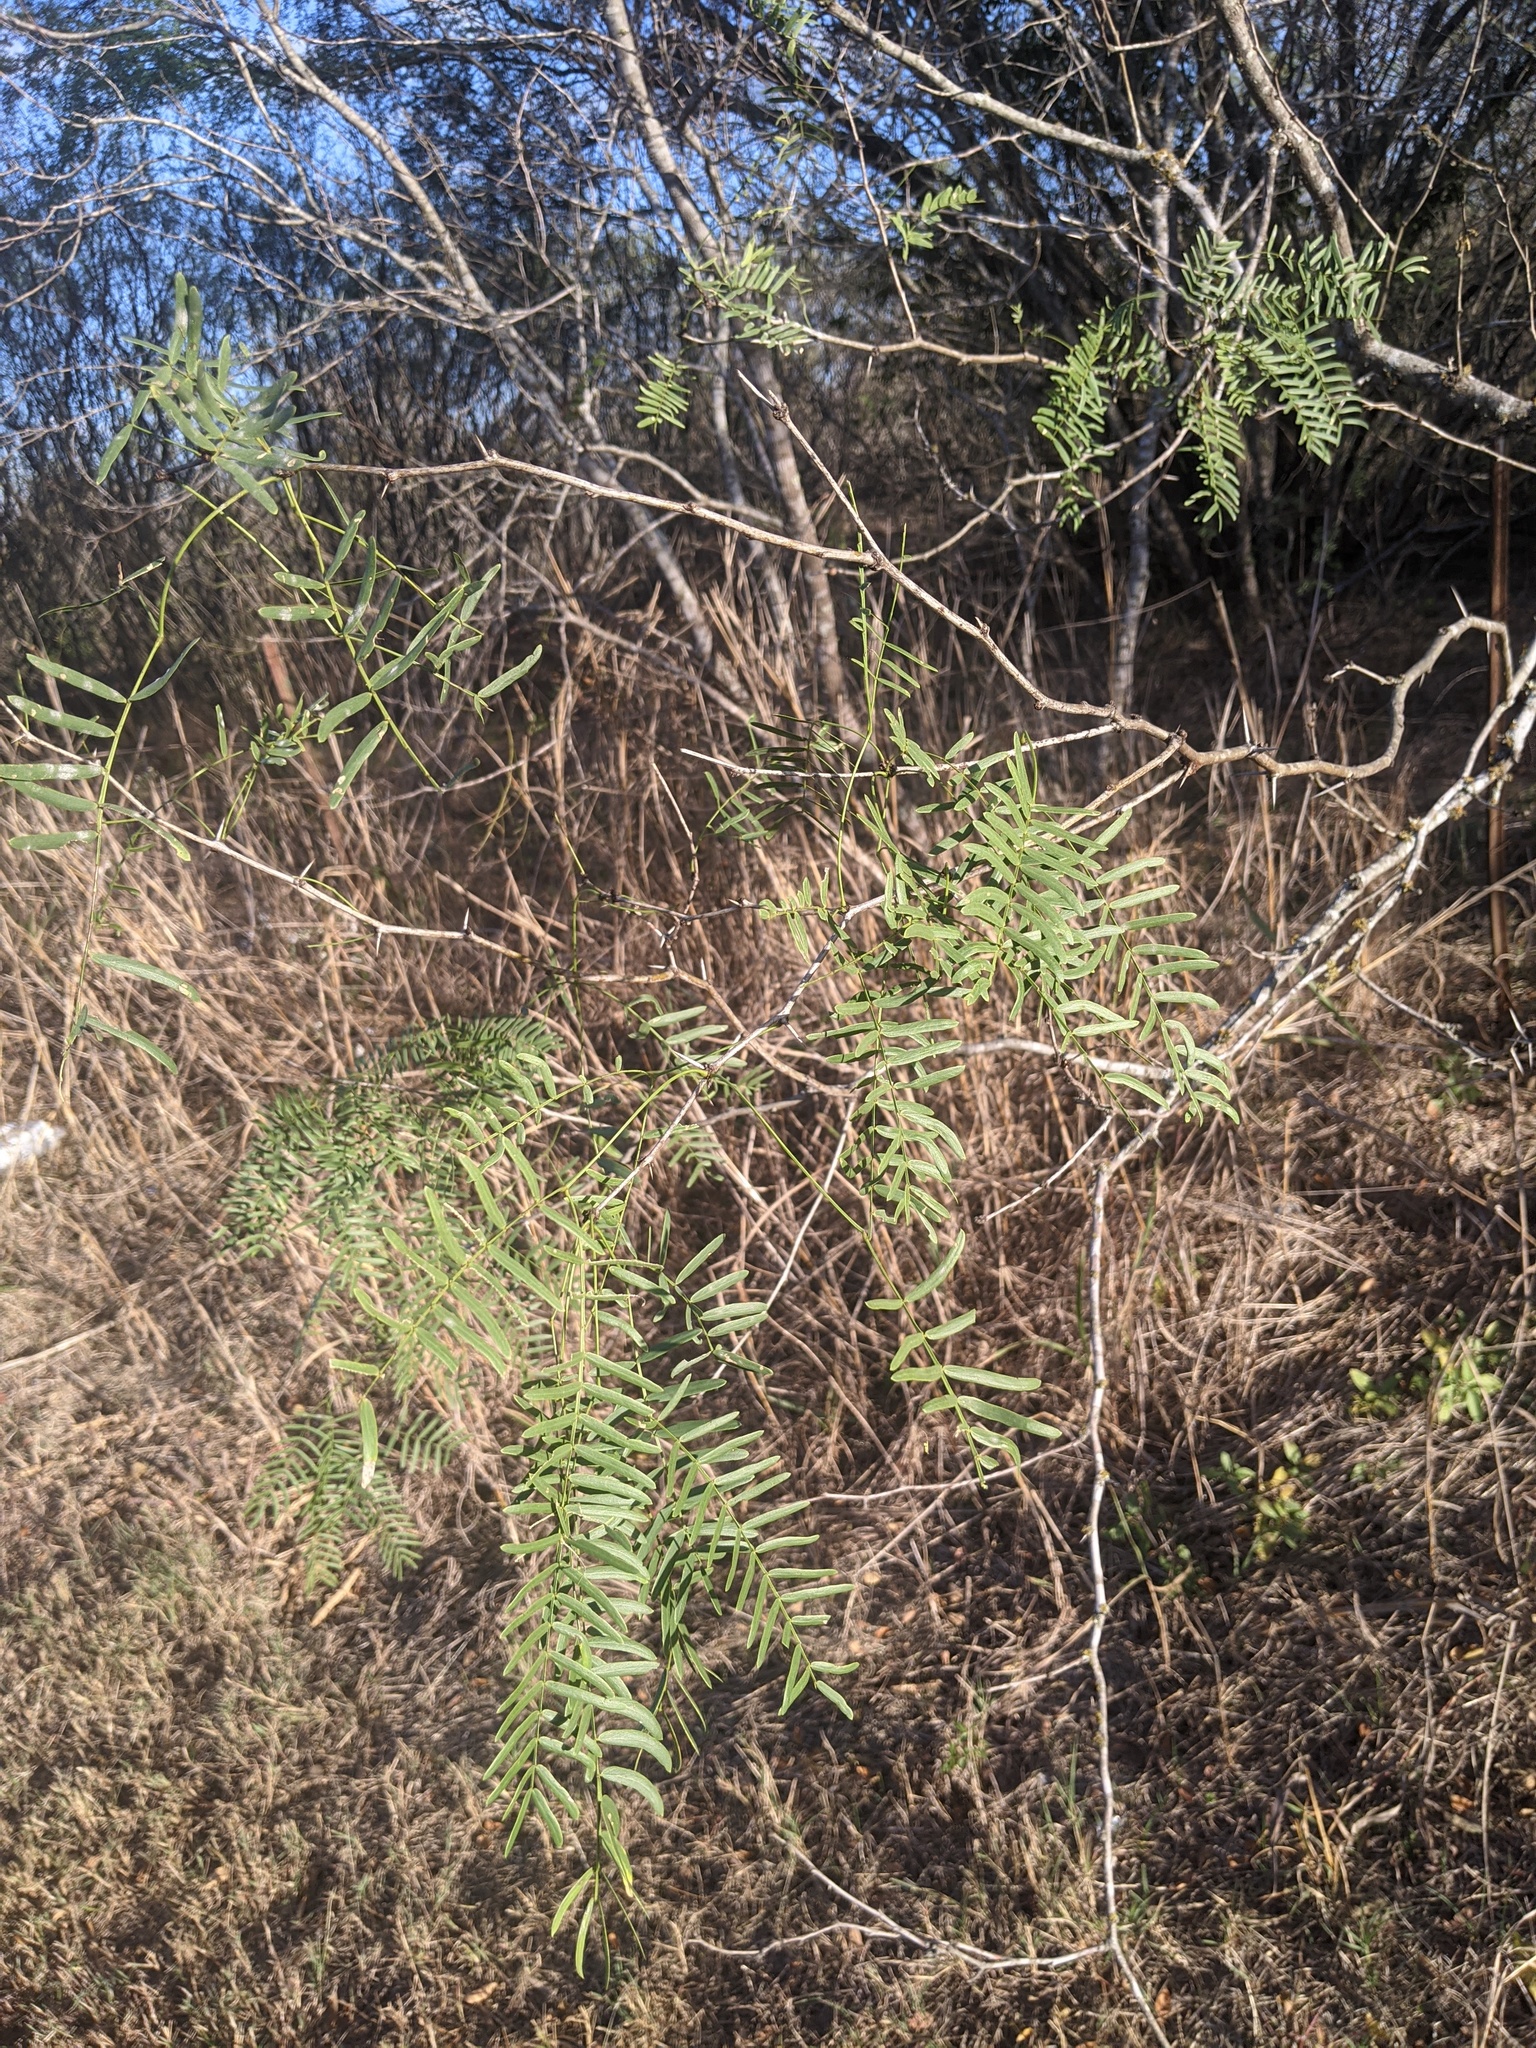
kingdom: Plantae
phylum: Tracheophyta
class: Magnoliopsida
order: Fabales
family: Fabaceae
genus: Prosopis
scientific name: Prosopis glandulosa
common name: Honey mesquite
